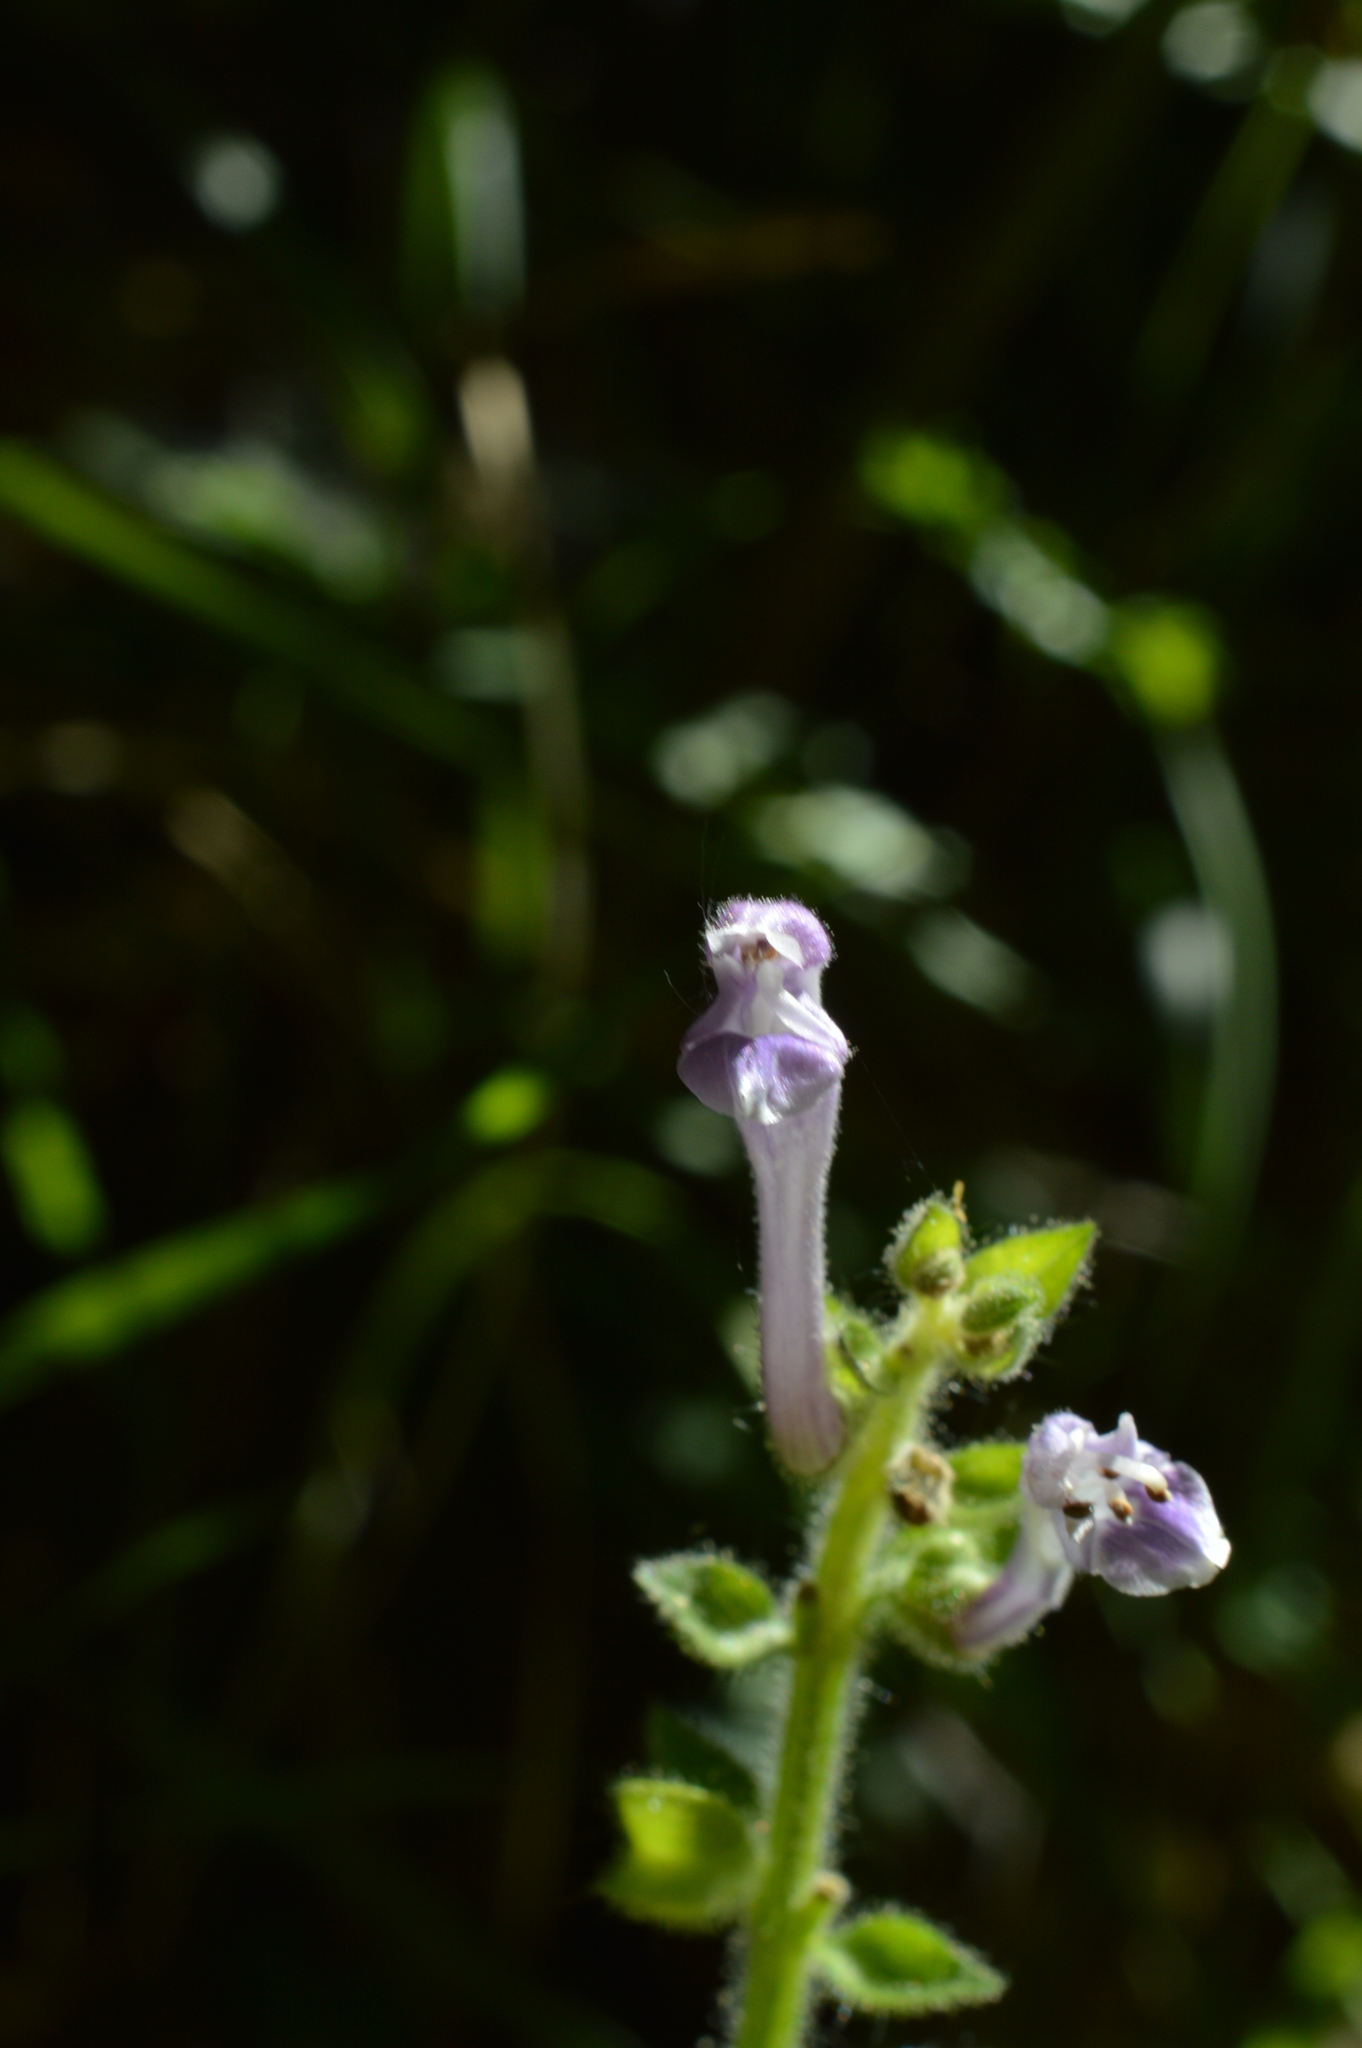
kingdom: Plantae
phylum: Tracheophyta
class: Magnoliopsida
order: Lamiales
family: Lamiaceae
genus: Scutellaria
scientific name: Scutellaria columnae
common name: Large skullcap
